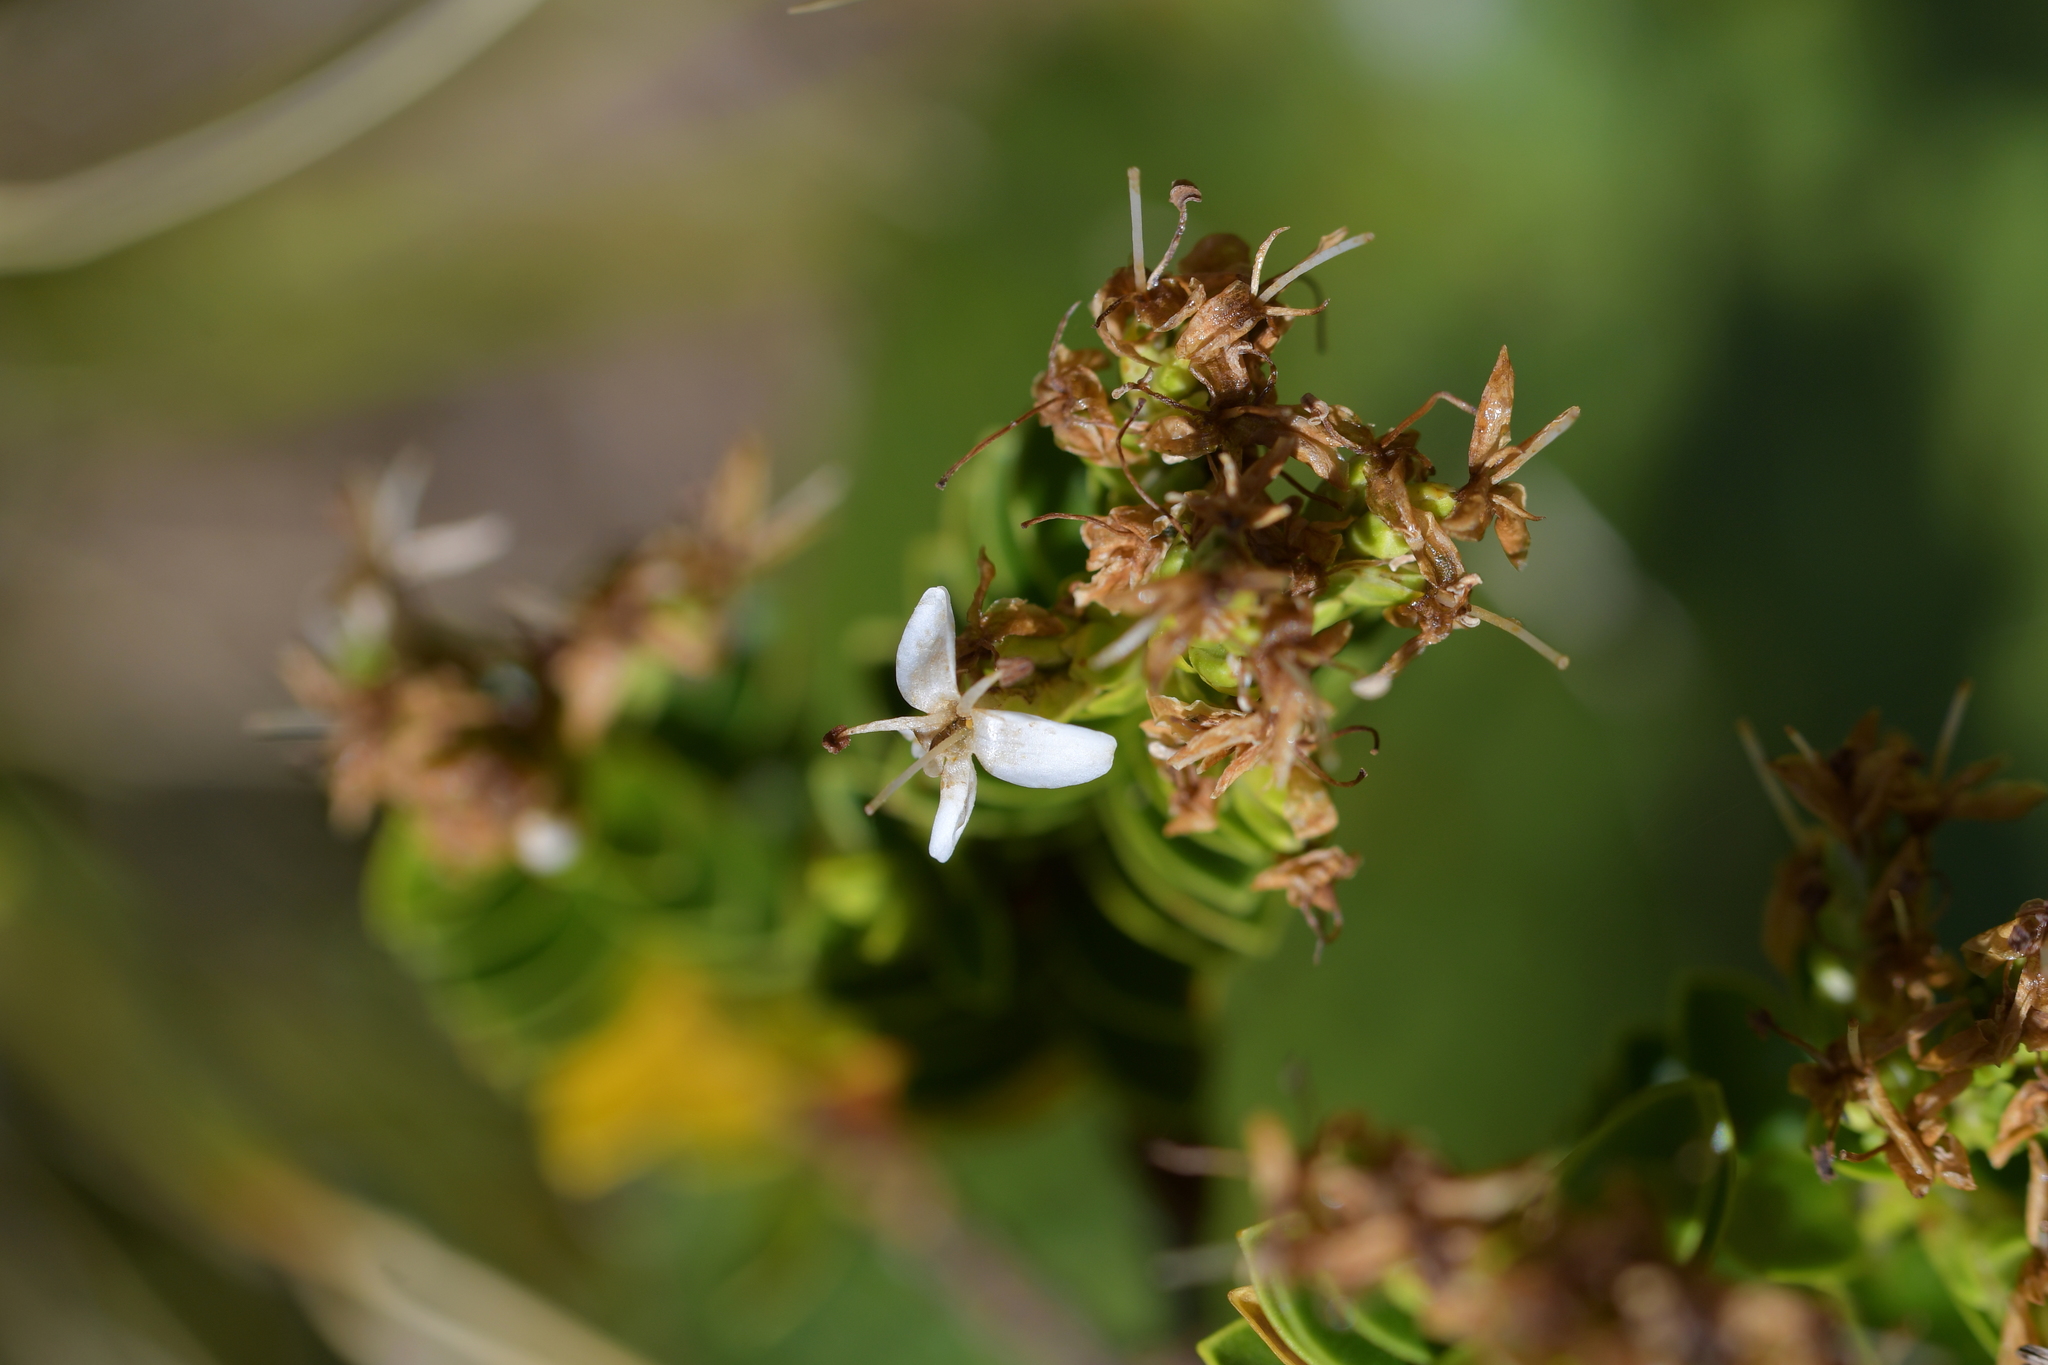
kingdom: Plantae
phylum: Tracheophyta
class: Magnoliopsida
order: Lamiales
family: Plantaginaceae
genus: Veronica
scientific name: Veronica odora
